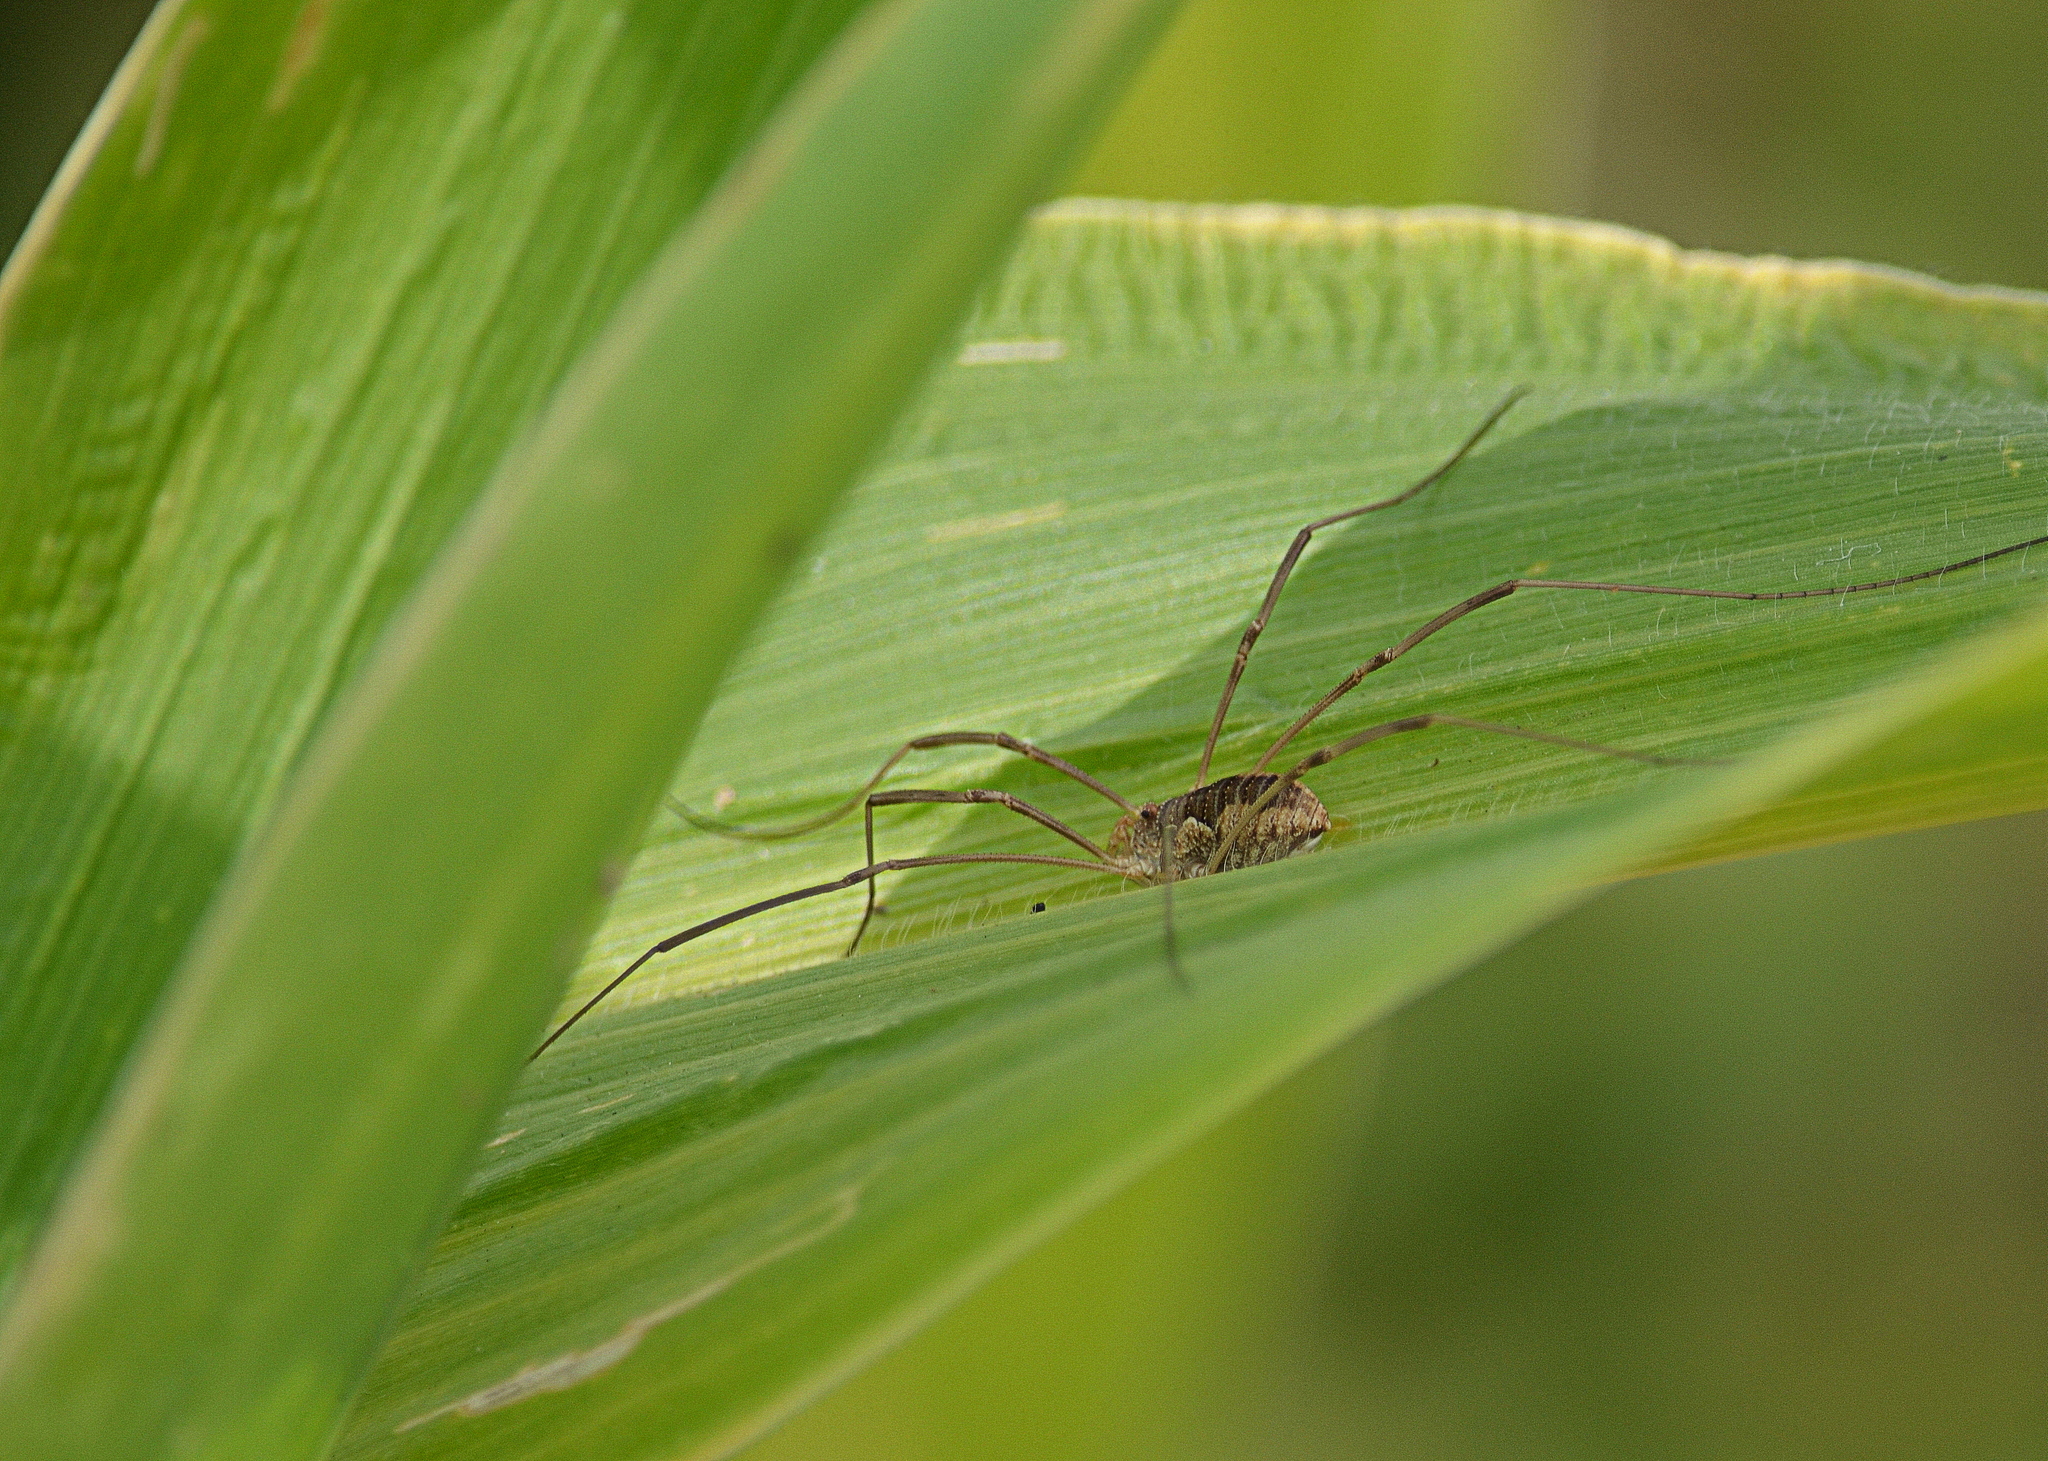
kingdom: Animalia
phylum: Arthropoda
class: Arachnida
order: Opiliones
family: Phalangiidae
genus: Phalangium
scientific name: Phalangium opilio
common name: Daddy longleg
